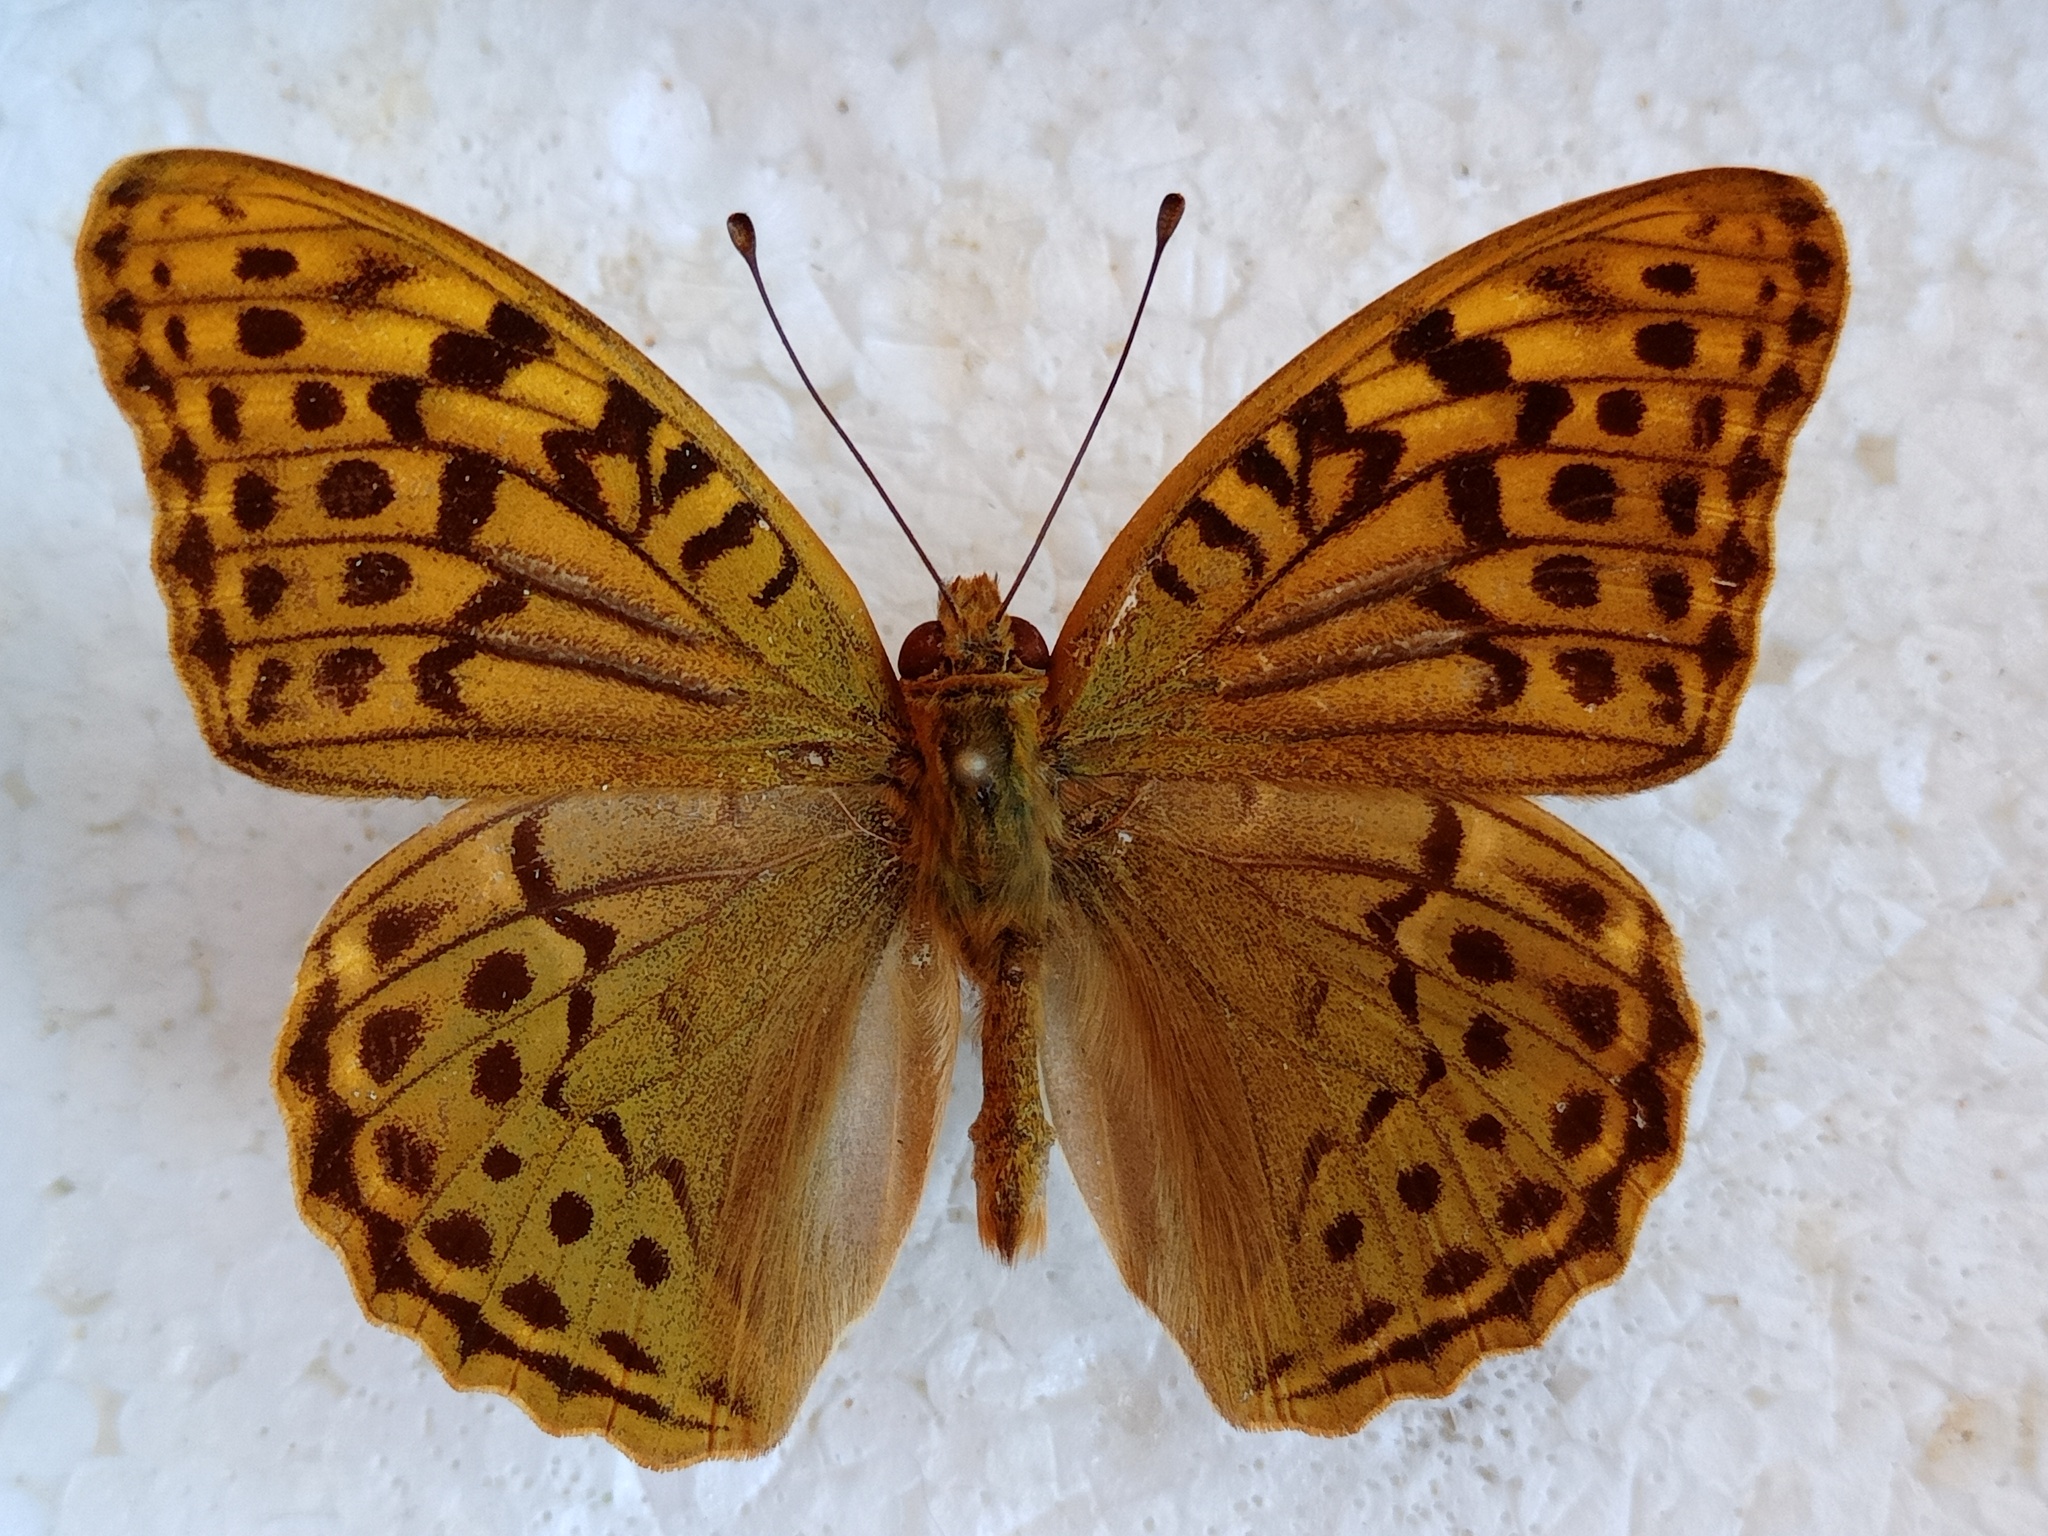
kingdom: Animalia
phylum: Arthropoda
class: Insecta
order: Lepidoptera
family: Nymphalidae
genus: Damora
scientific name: Damora pandora
